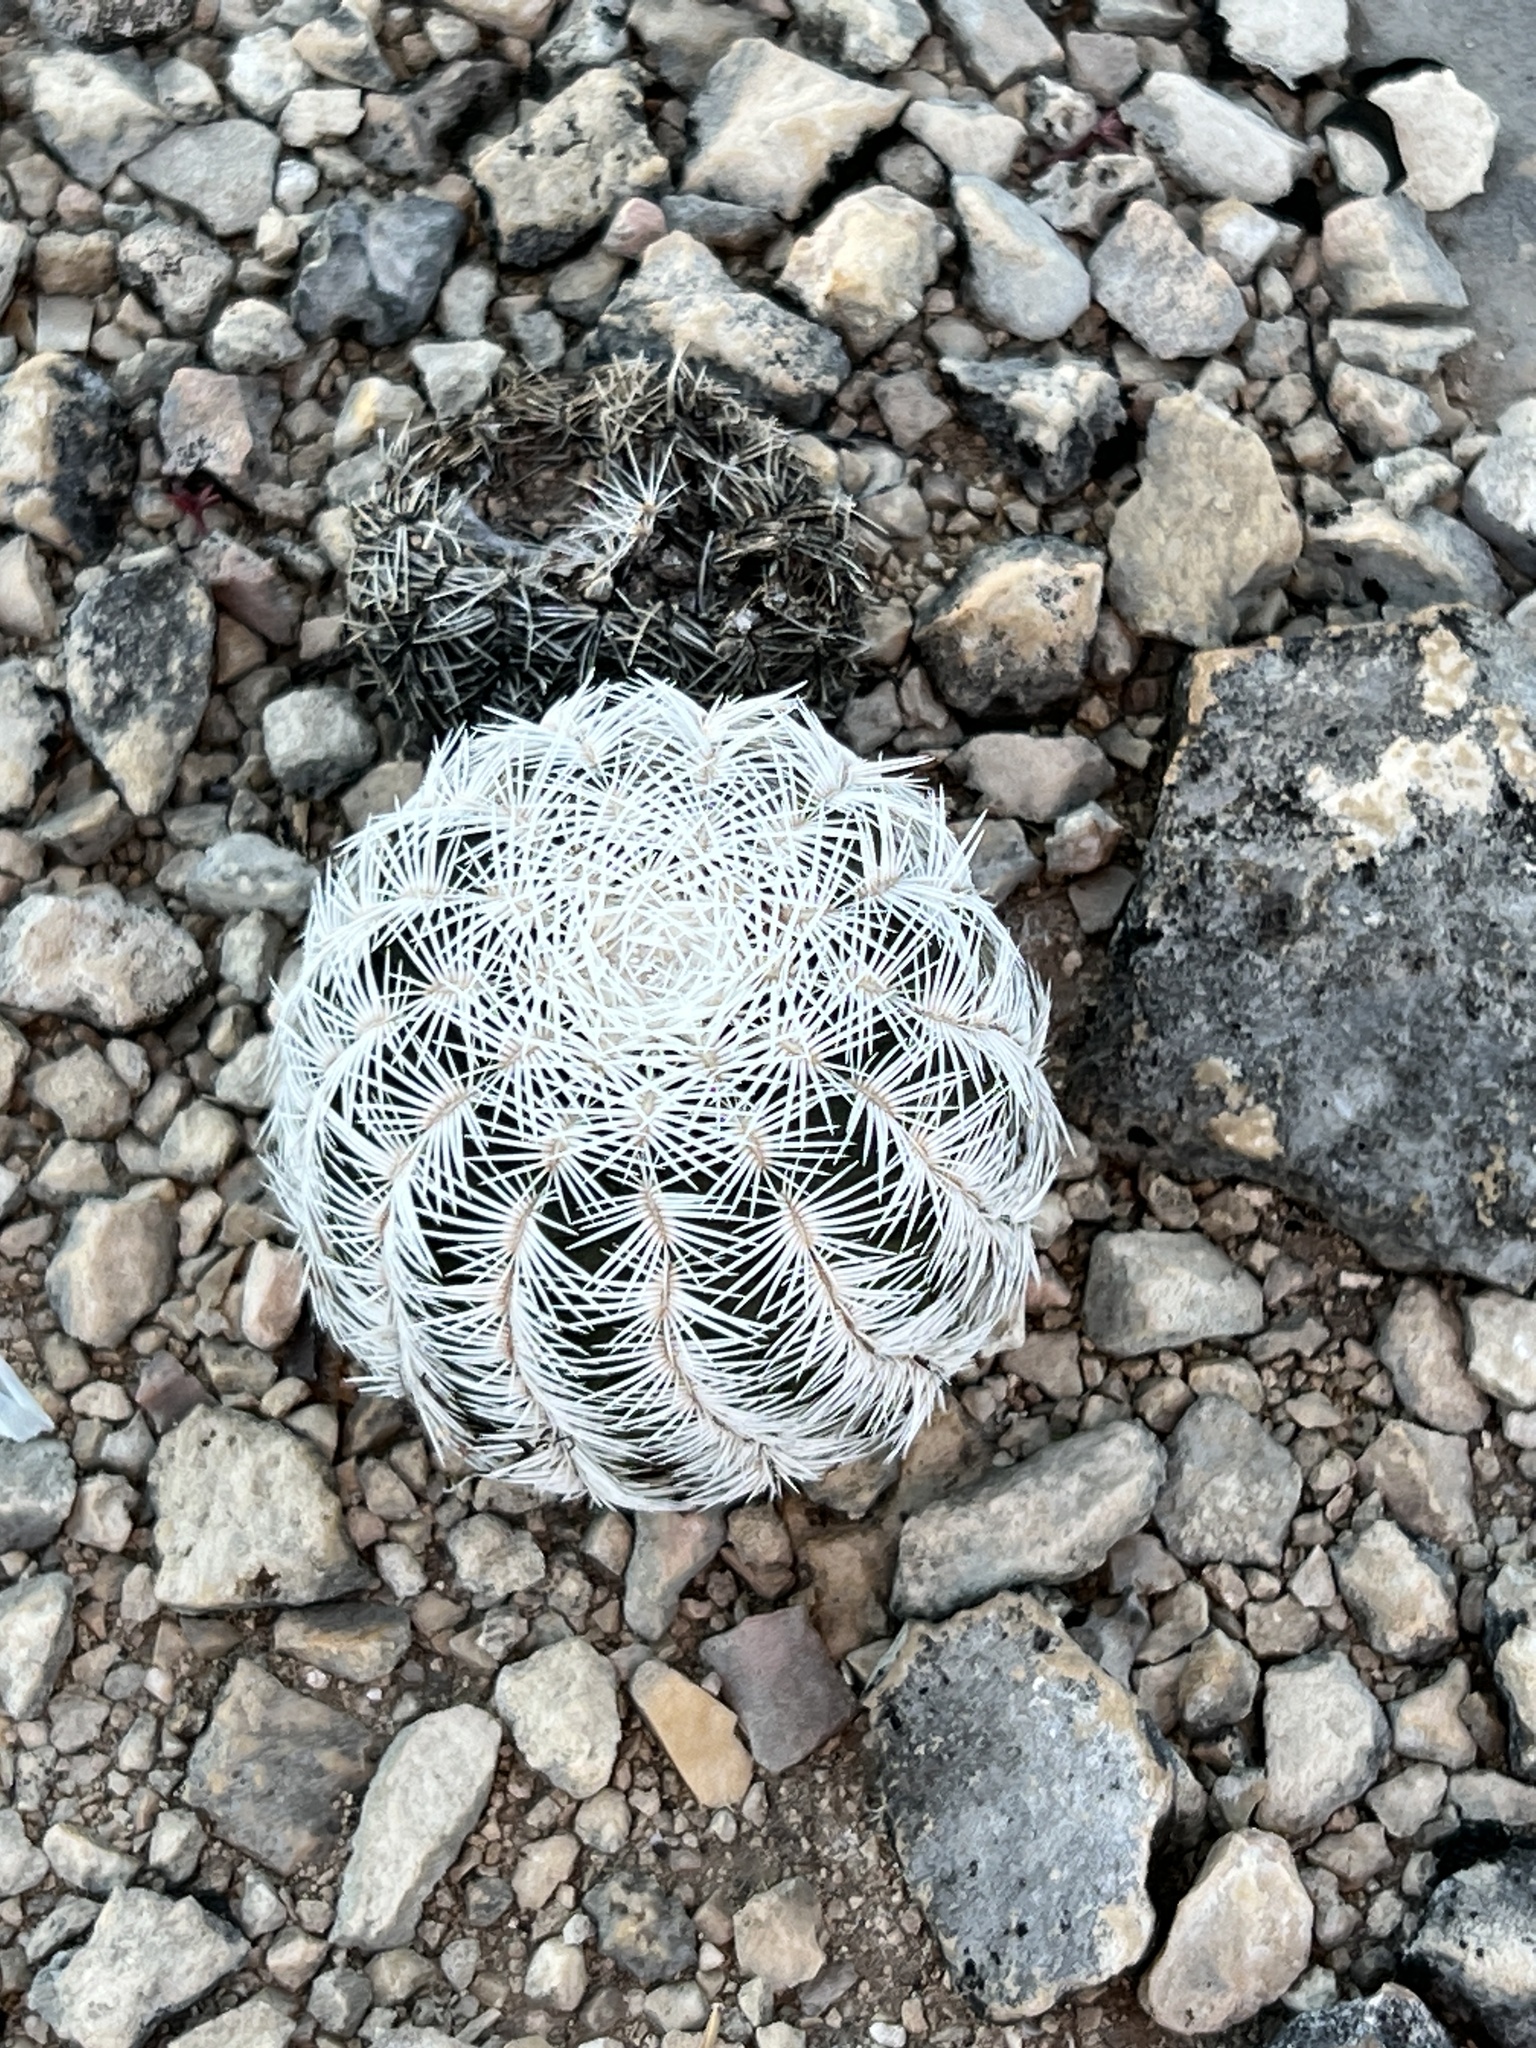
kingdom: Plantae
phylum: Tracheophyta
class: Magnoliopsida
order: Caryophyllales
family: Cactaceae
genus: Echinocereus
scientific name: Echinocereus reichenbachii
